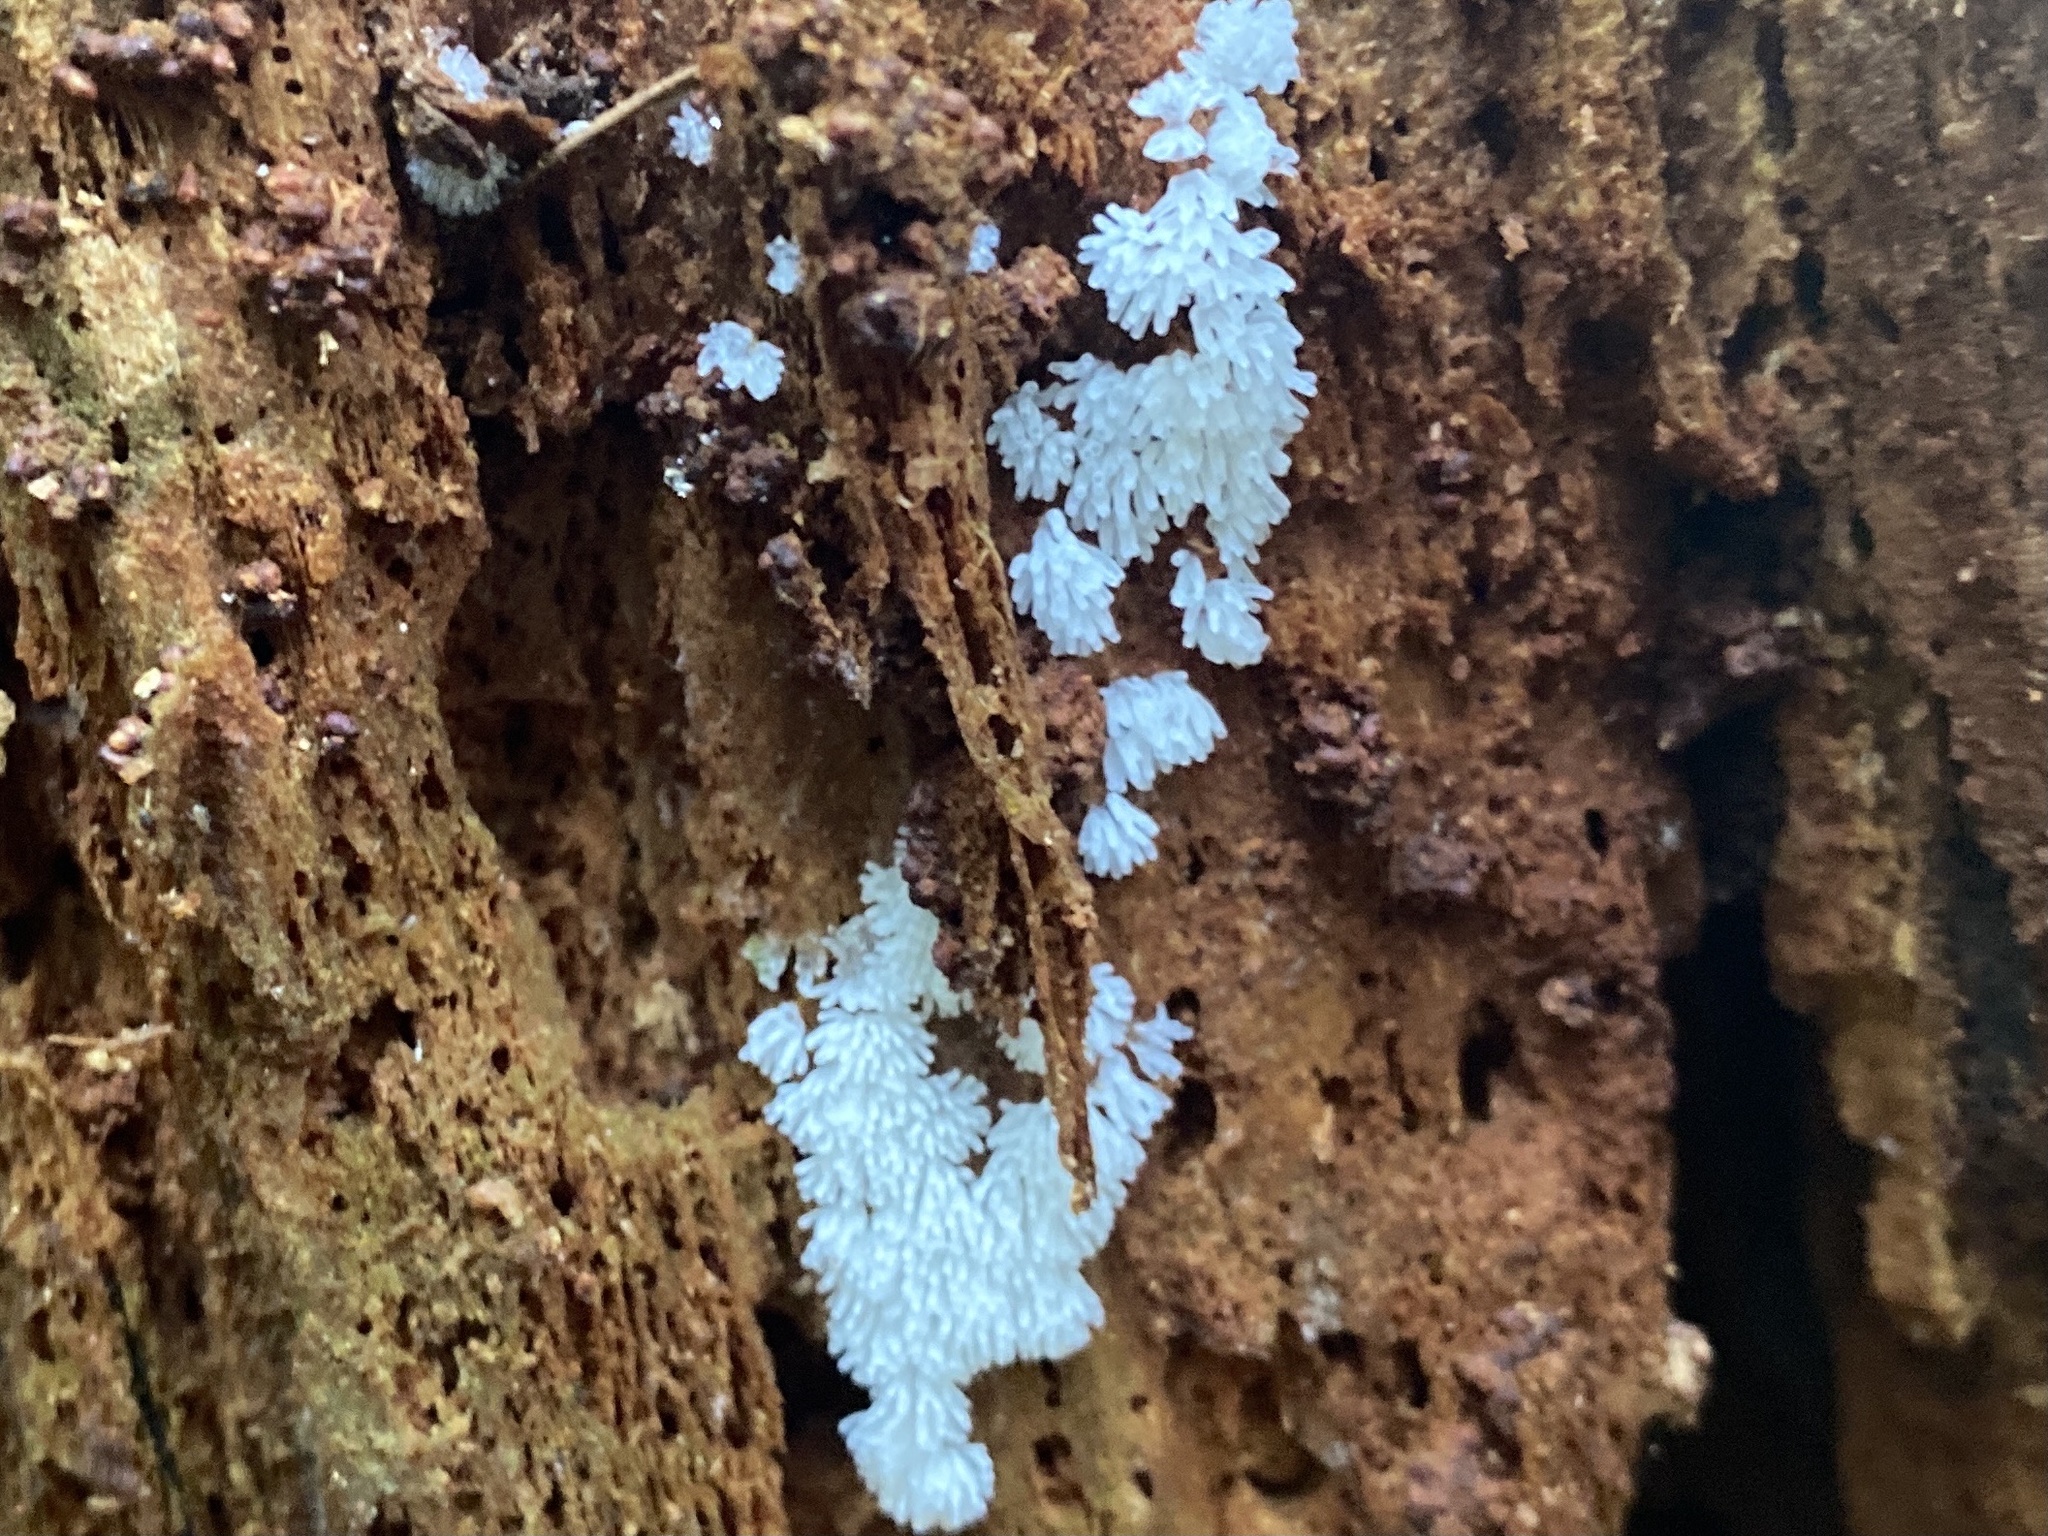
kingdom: Protozoa
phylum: Mycetozoa
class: Protosteliomycetes
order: Ceratiomyxales
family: Ceratiomyxaceae
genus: Ceratiomyxa
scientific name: Ceratiomyxa fruticulosa
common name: Honeycomb coral slime mold
